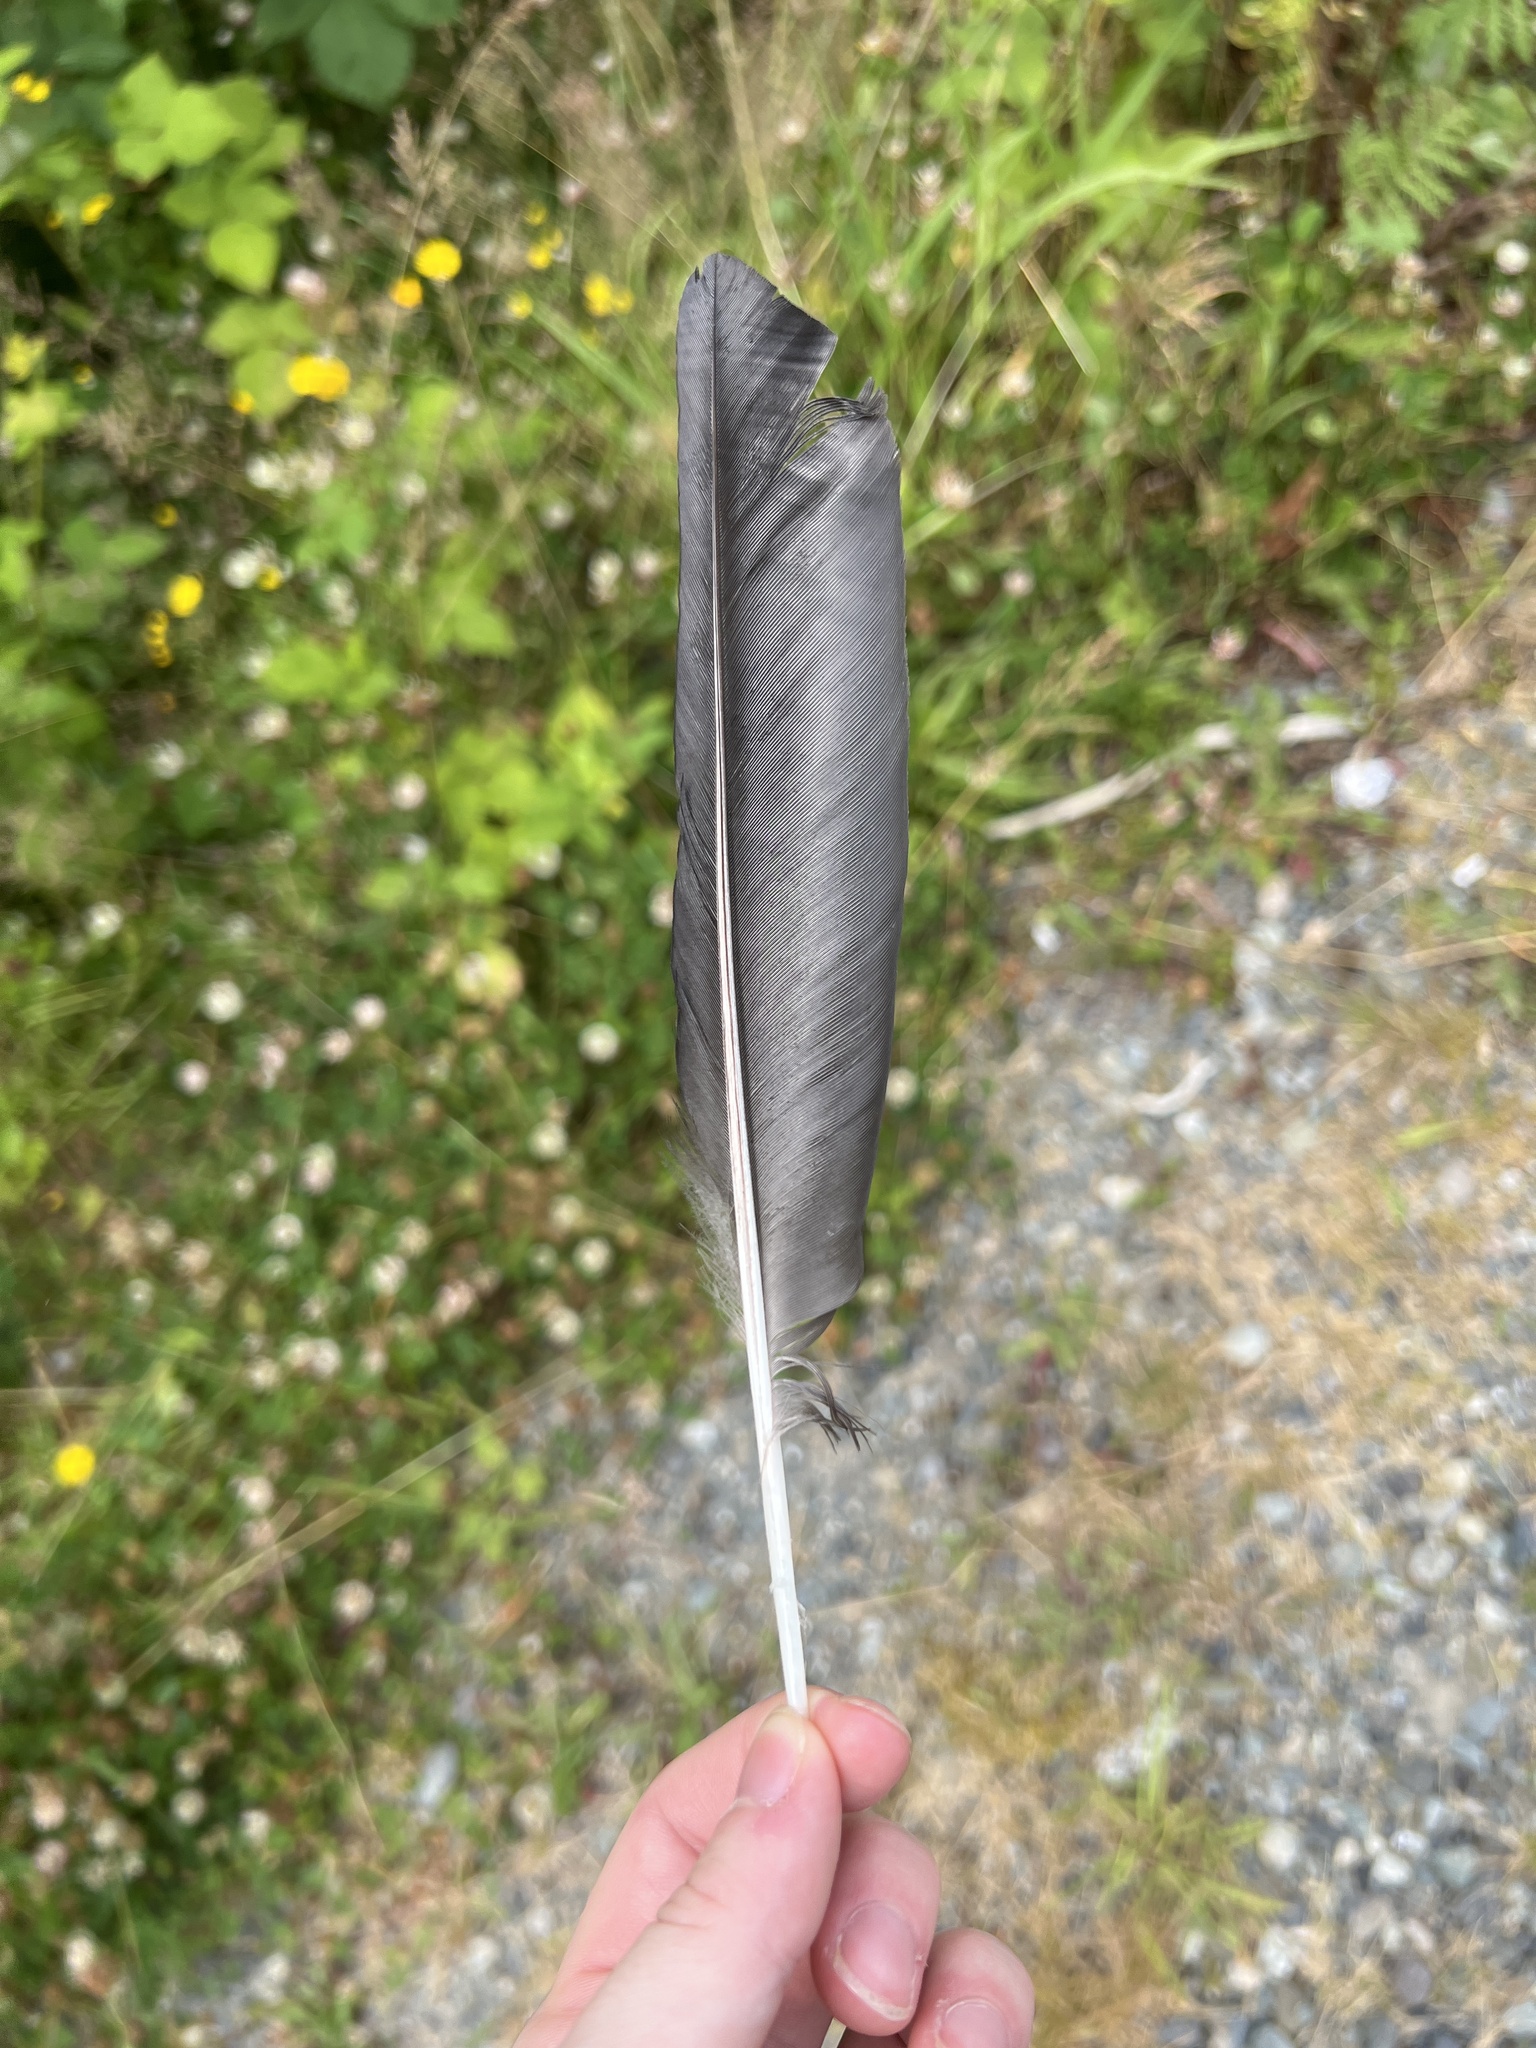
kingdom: Animalia
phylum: Chordata
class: Aves
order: Passeriformes
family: Corvidae
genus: Corvus
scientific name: Corvus brachyrhynchos
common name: American crow
